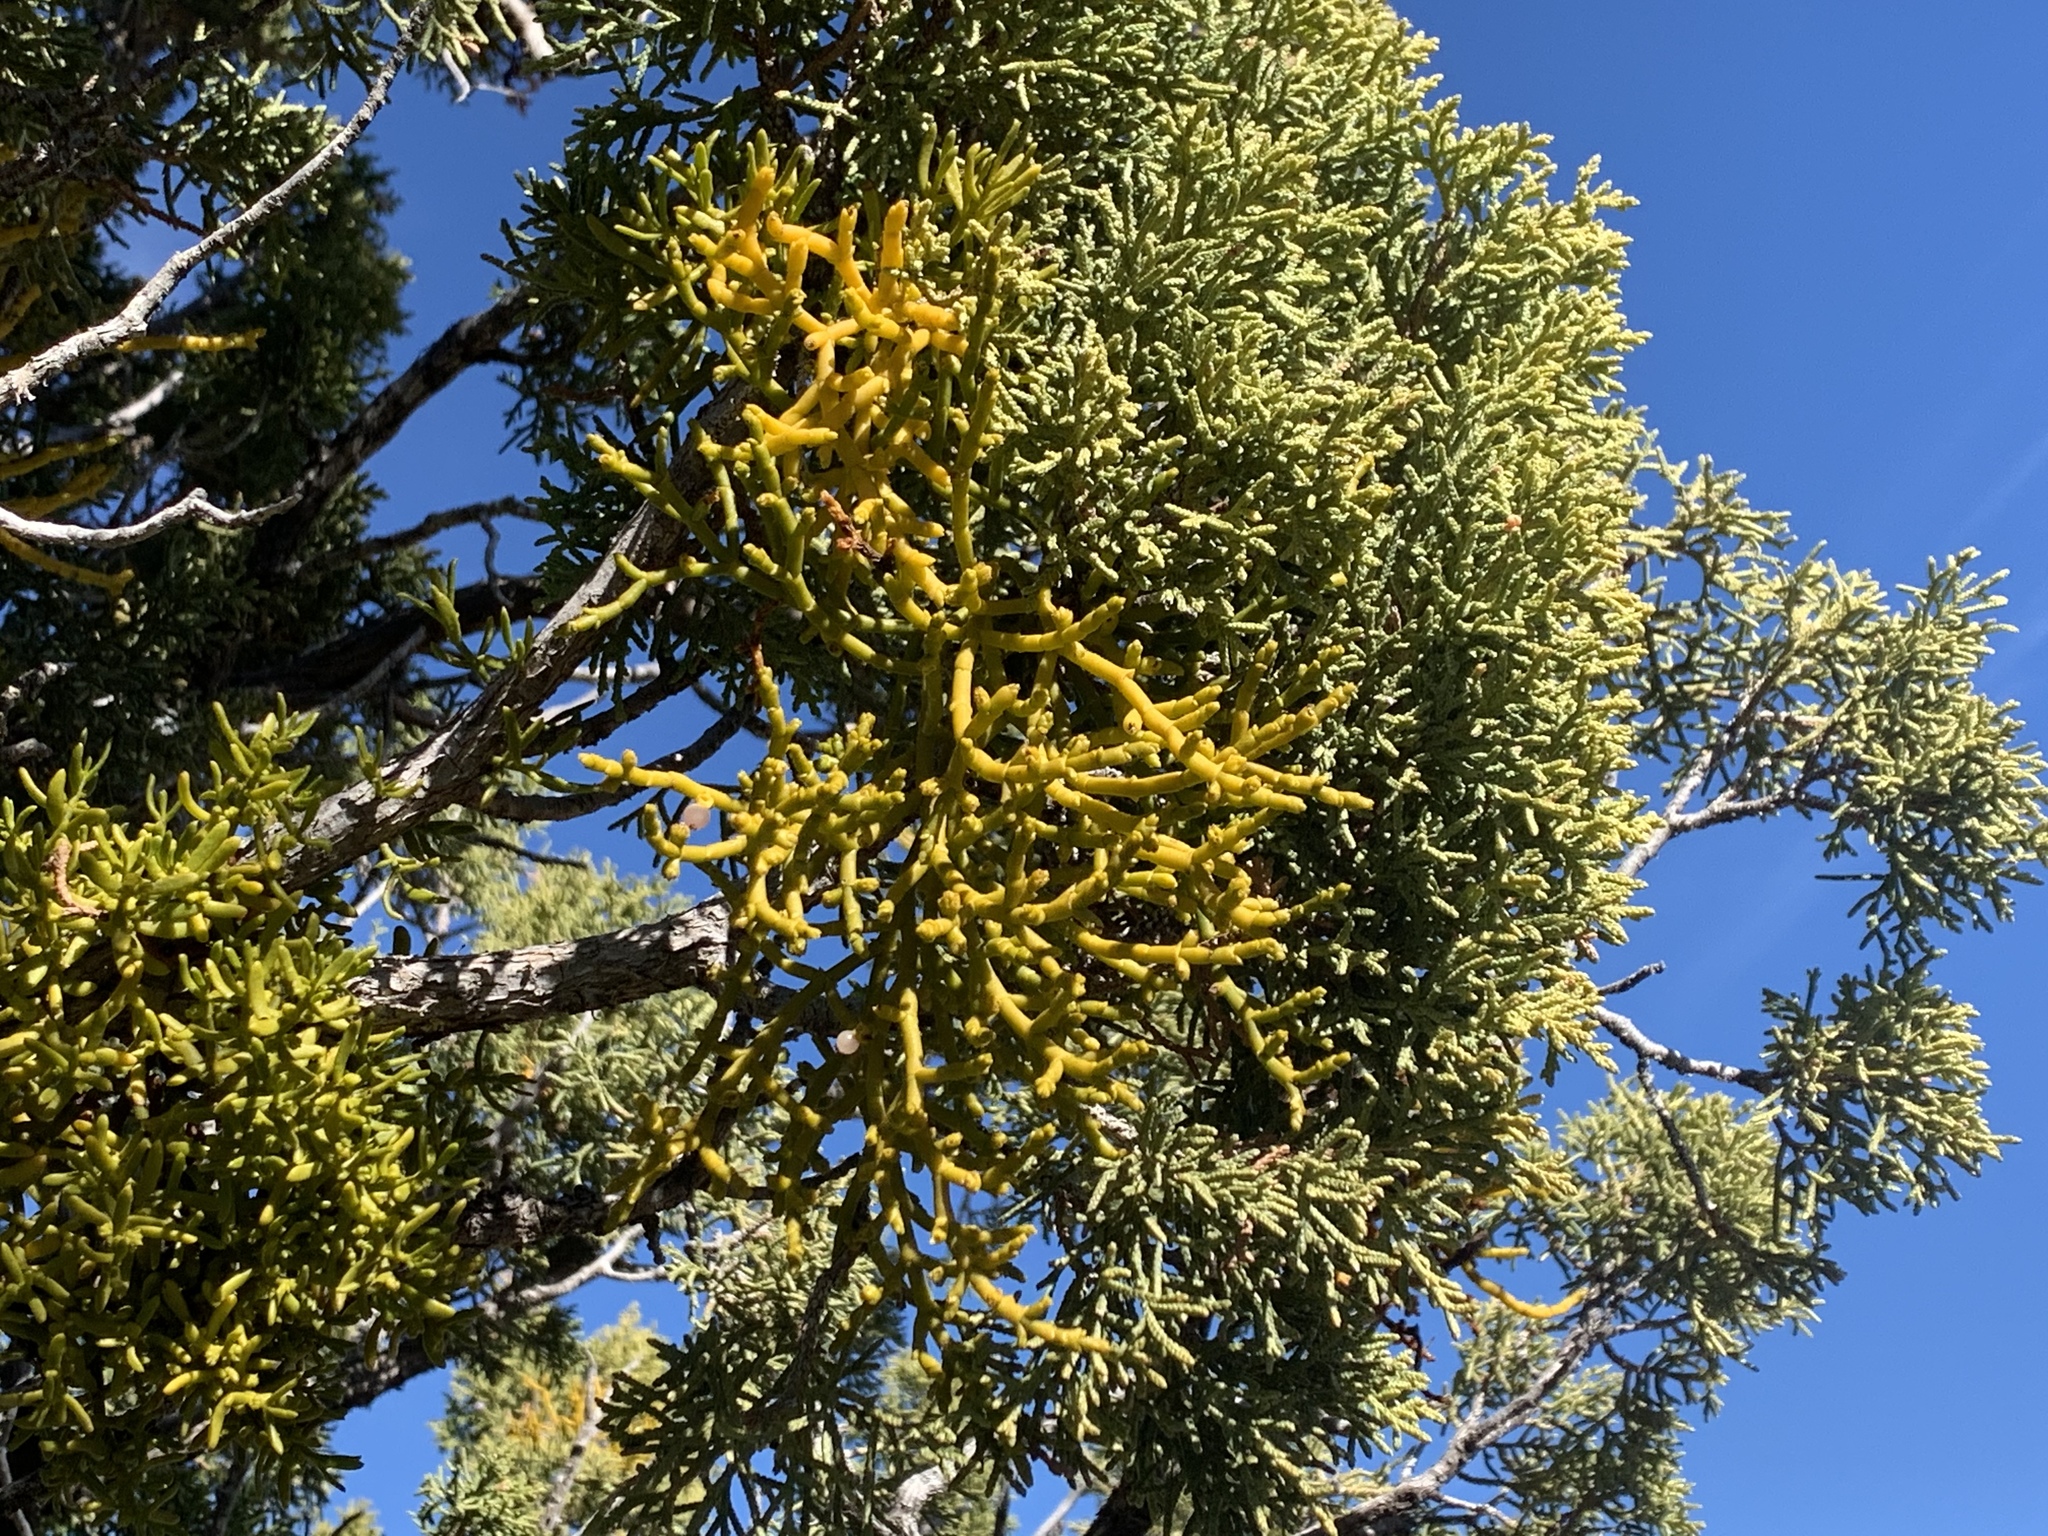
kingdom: Plantae
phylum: Tracheophyta
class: Magnoliopsida
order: Santalales
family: Viscaceae
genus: Phoradendron
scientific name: Phoradendron juniperinum
